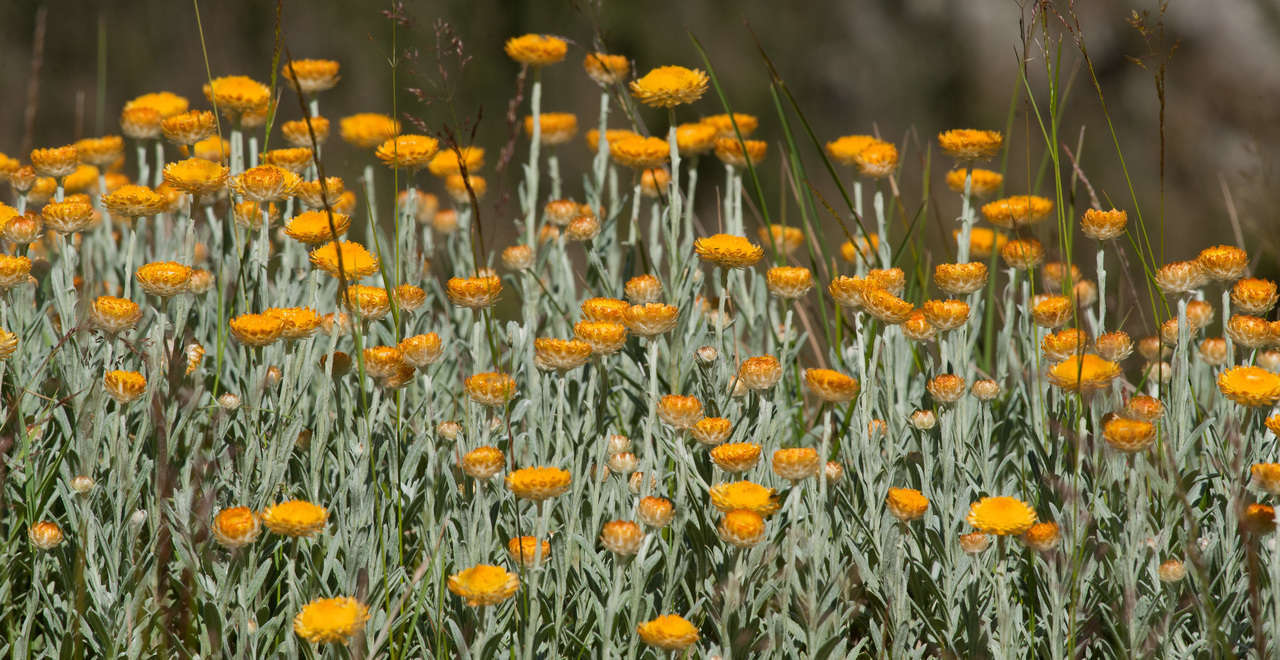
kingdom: Plantae
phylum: Tracheophyta
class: Magnoliopsida
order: Asterales
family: Asteraceae
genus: Coronidium
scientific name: Coronidium monticola
